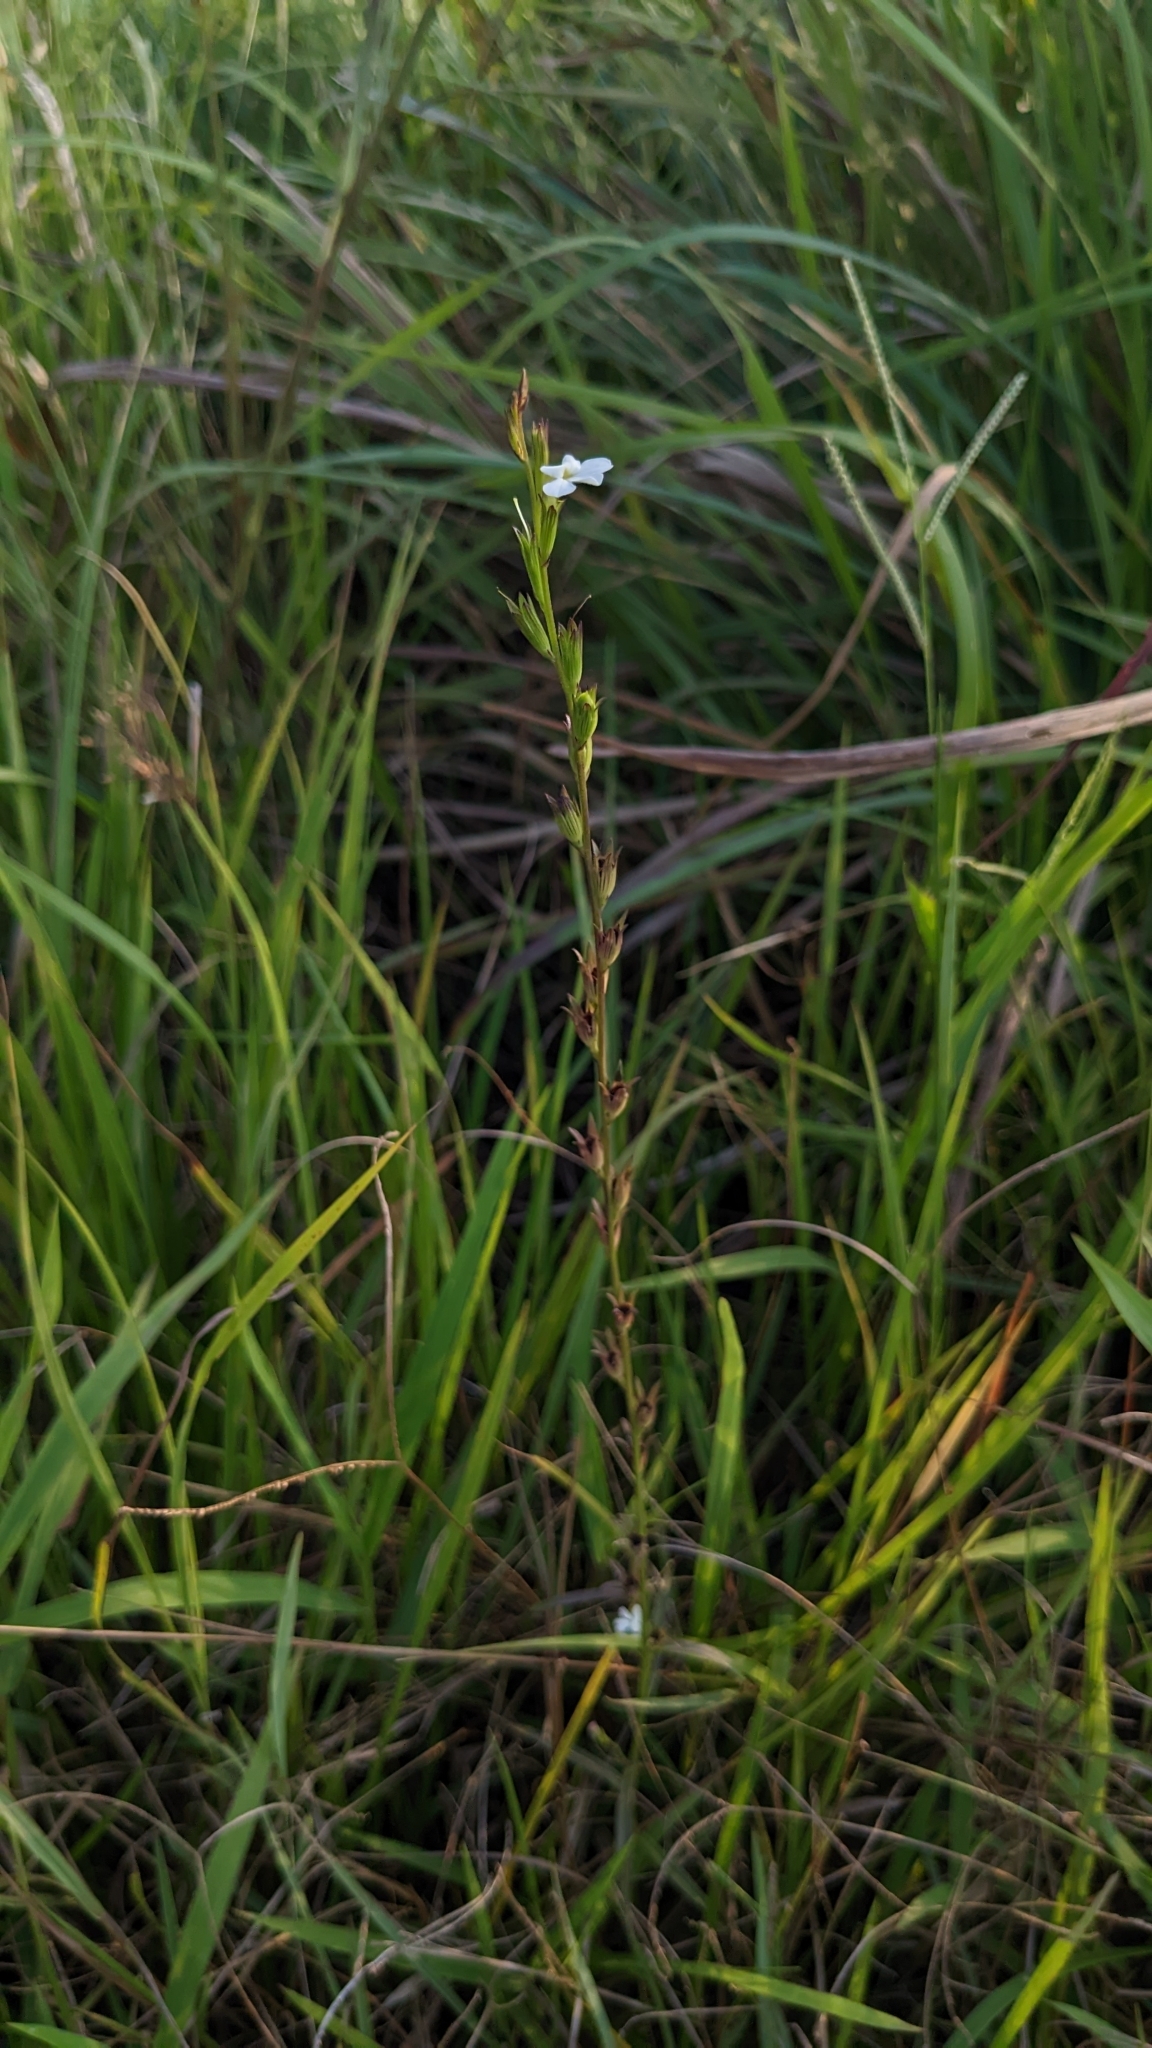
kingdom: Plantae
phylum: Tracheophyta
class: Magnoliopsida
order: Lamiales
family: Orobanchaceae
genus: Striga
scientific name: Striga masuria
